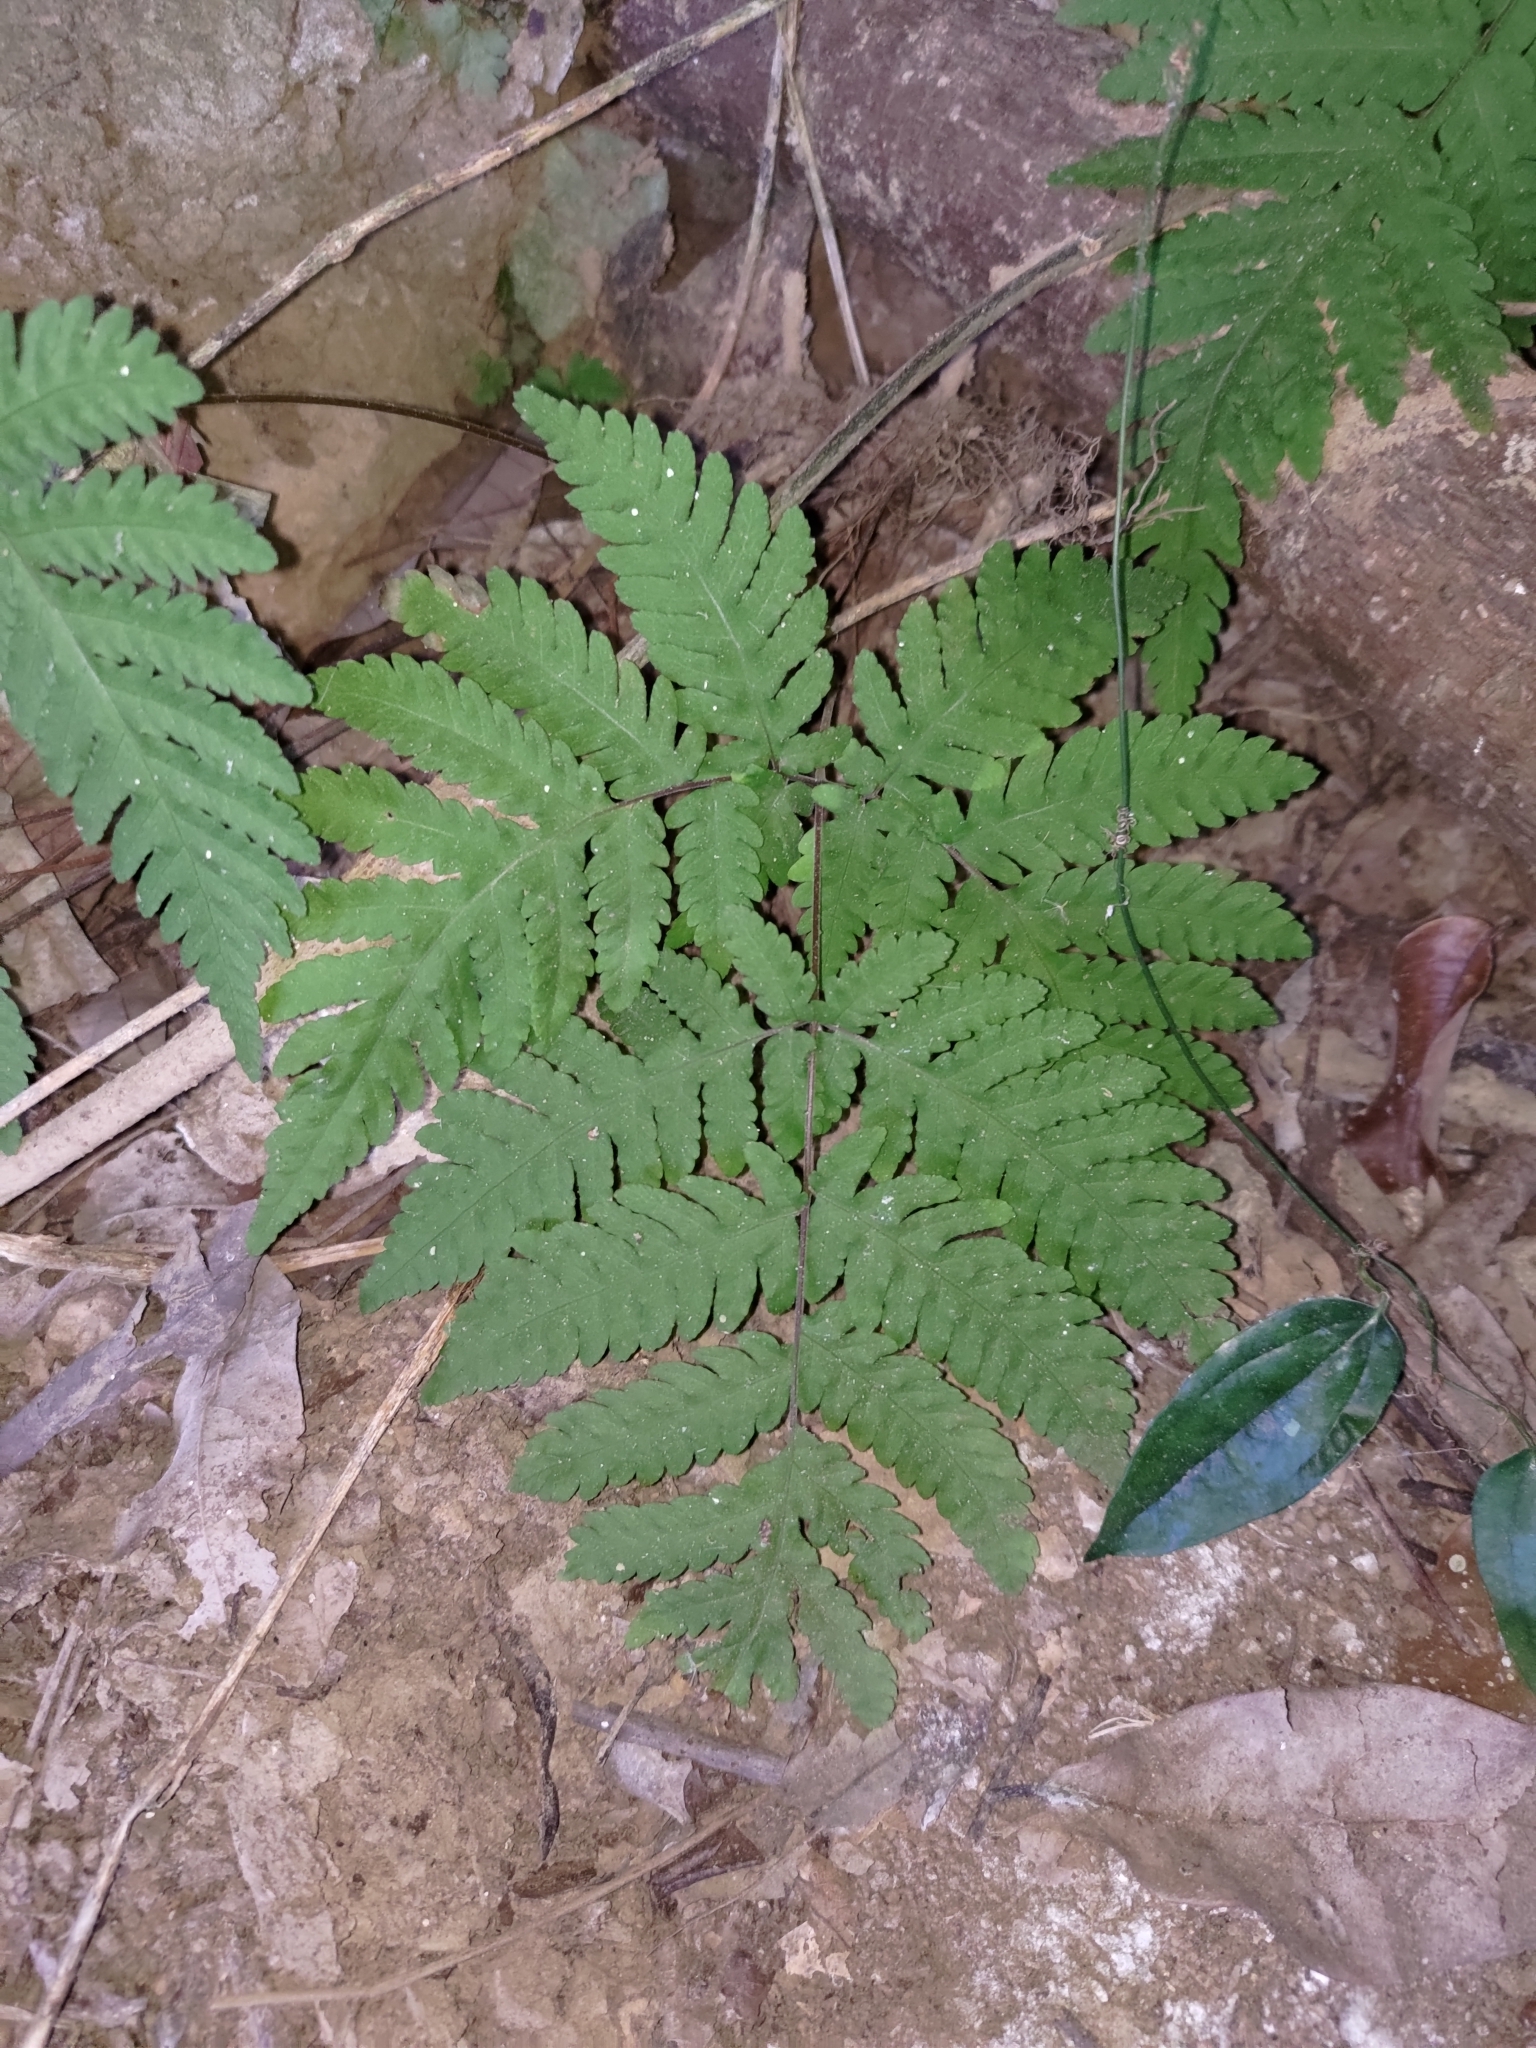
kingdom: Plantae
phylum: Tracheophyta
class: Polypodiopsida
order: Polypodiales
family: Tectariaceae
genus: Tectaria
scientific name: Tectaria membranacea
